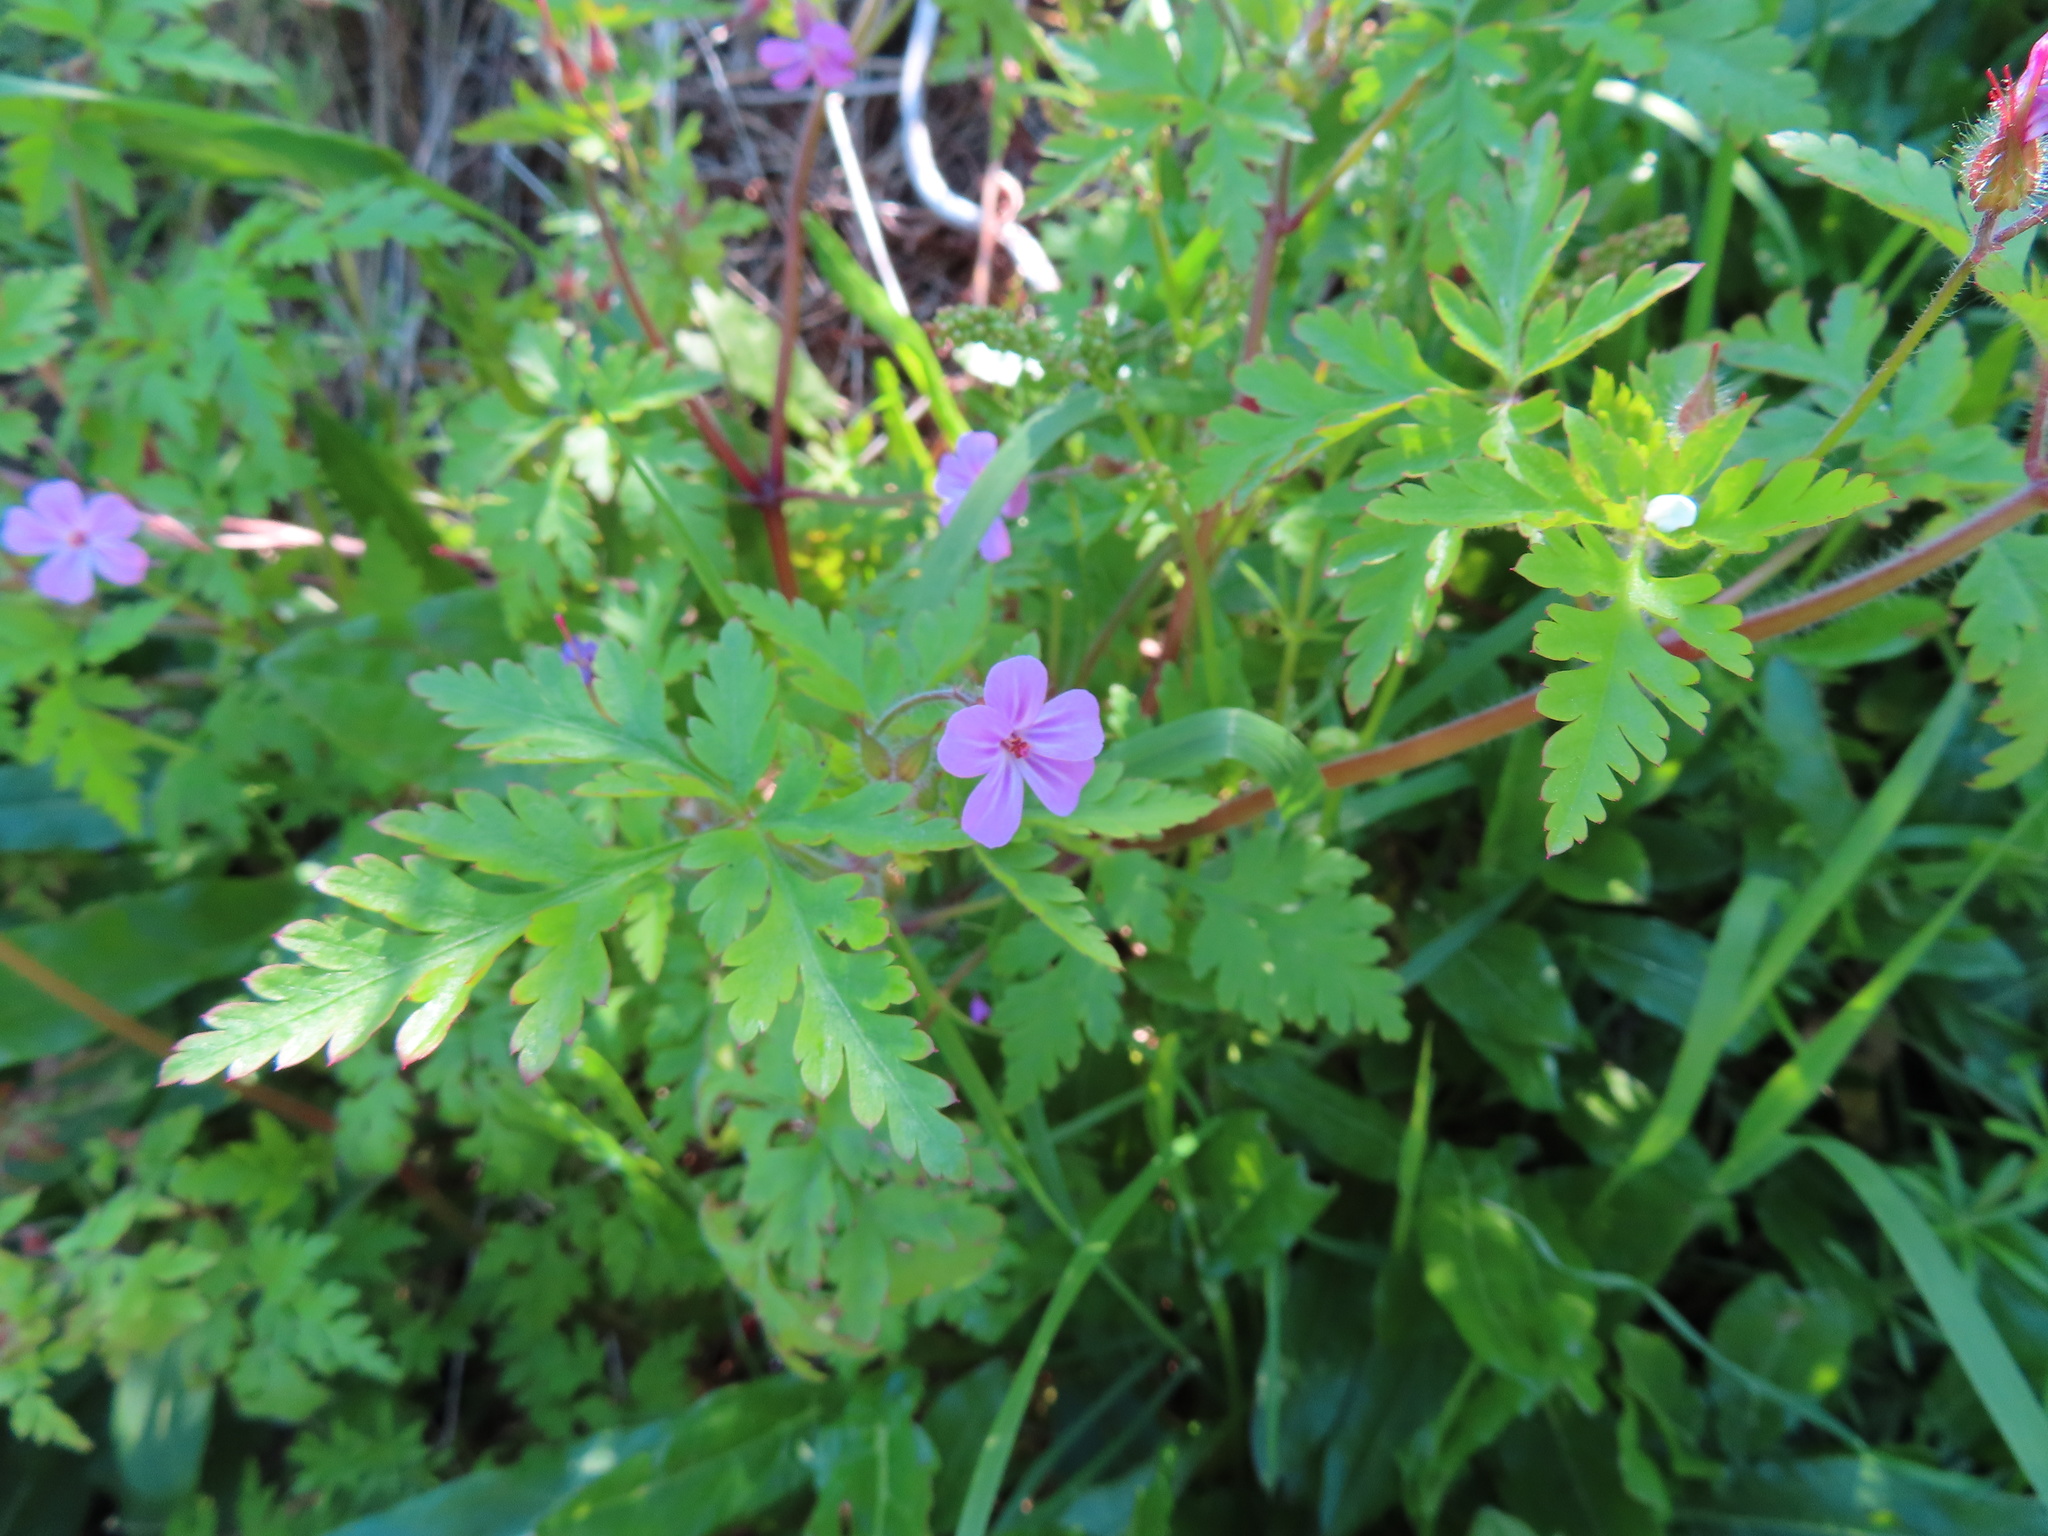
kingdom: Plantae
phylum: Tracheophyta
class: Magnoliopsida
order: Geraniales
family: Geraniaceae
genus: Geranium
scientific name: Geranium robertianum
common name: Herb-robert
